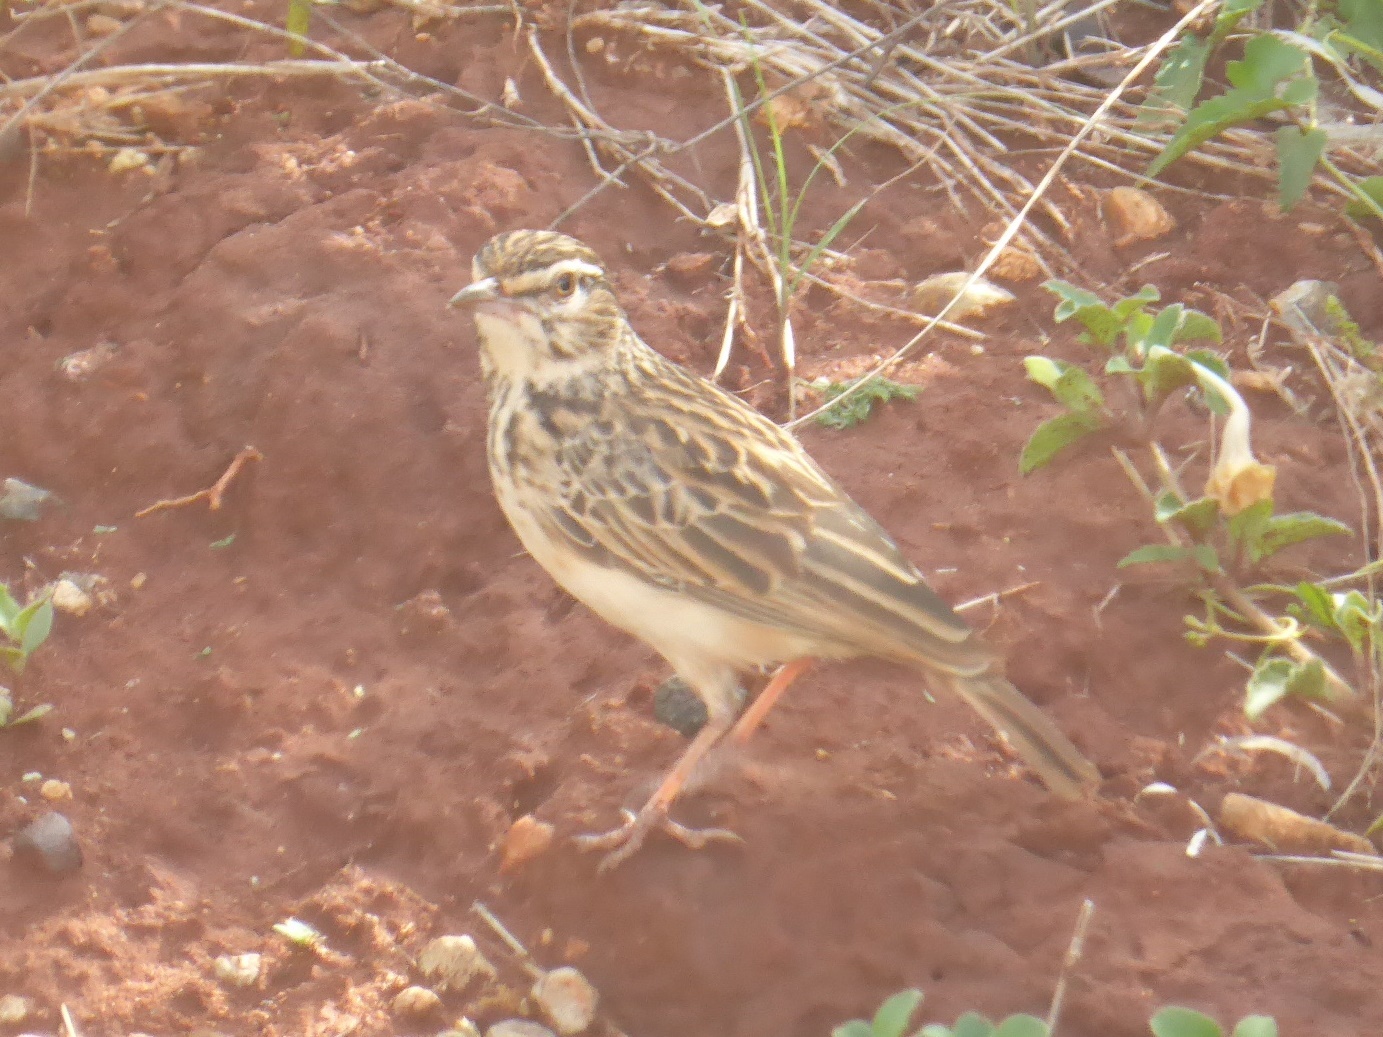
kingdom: Animalia
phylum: Chordata
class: Aves
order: Passeriformes
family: Alaudidae
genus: Calendulauda
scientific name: Calendulauda sabota
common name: Sabota lark
